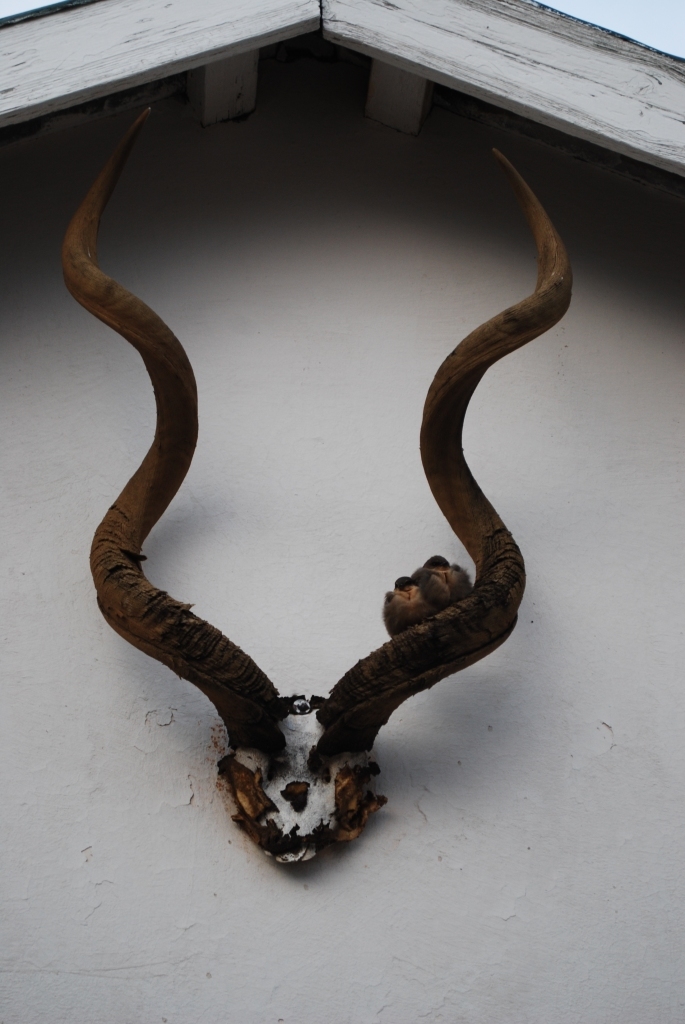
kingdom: Animalia
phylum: Chordata
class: Aves
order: Passeriformes
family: Hirundinidae
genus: Ptyonoprogne
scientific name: Ptyonoprogne fuligula
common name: Rock martin
